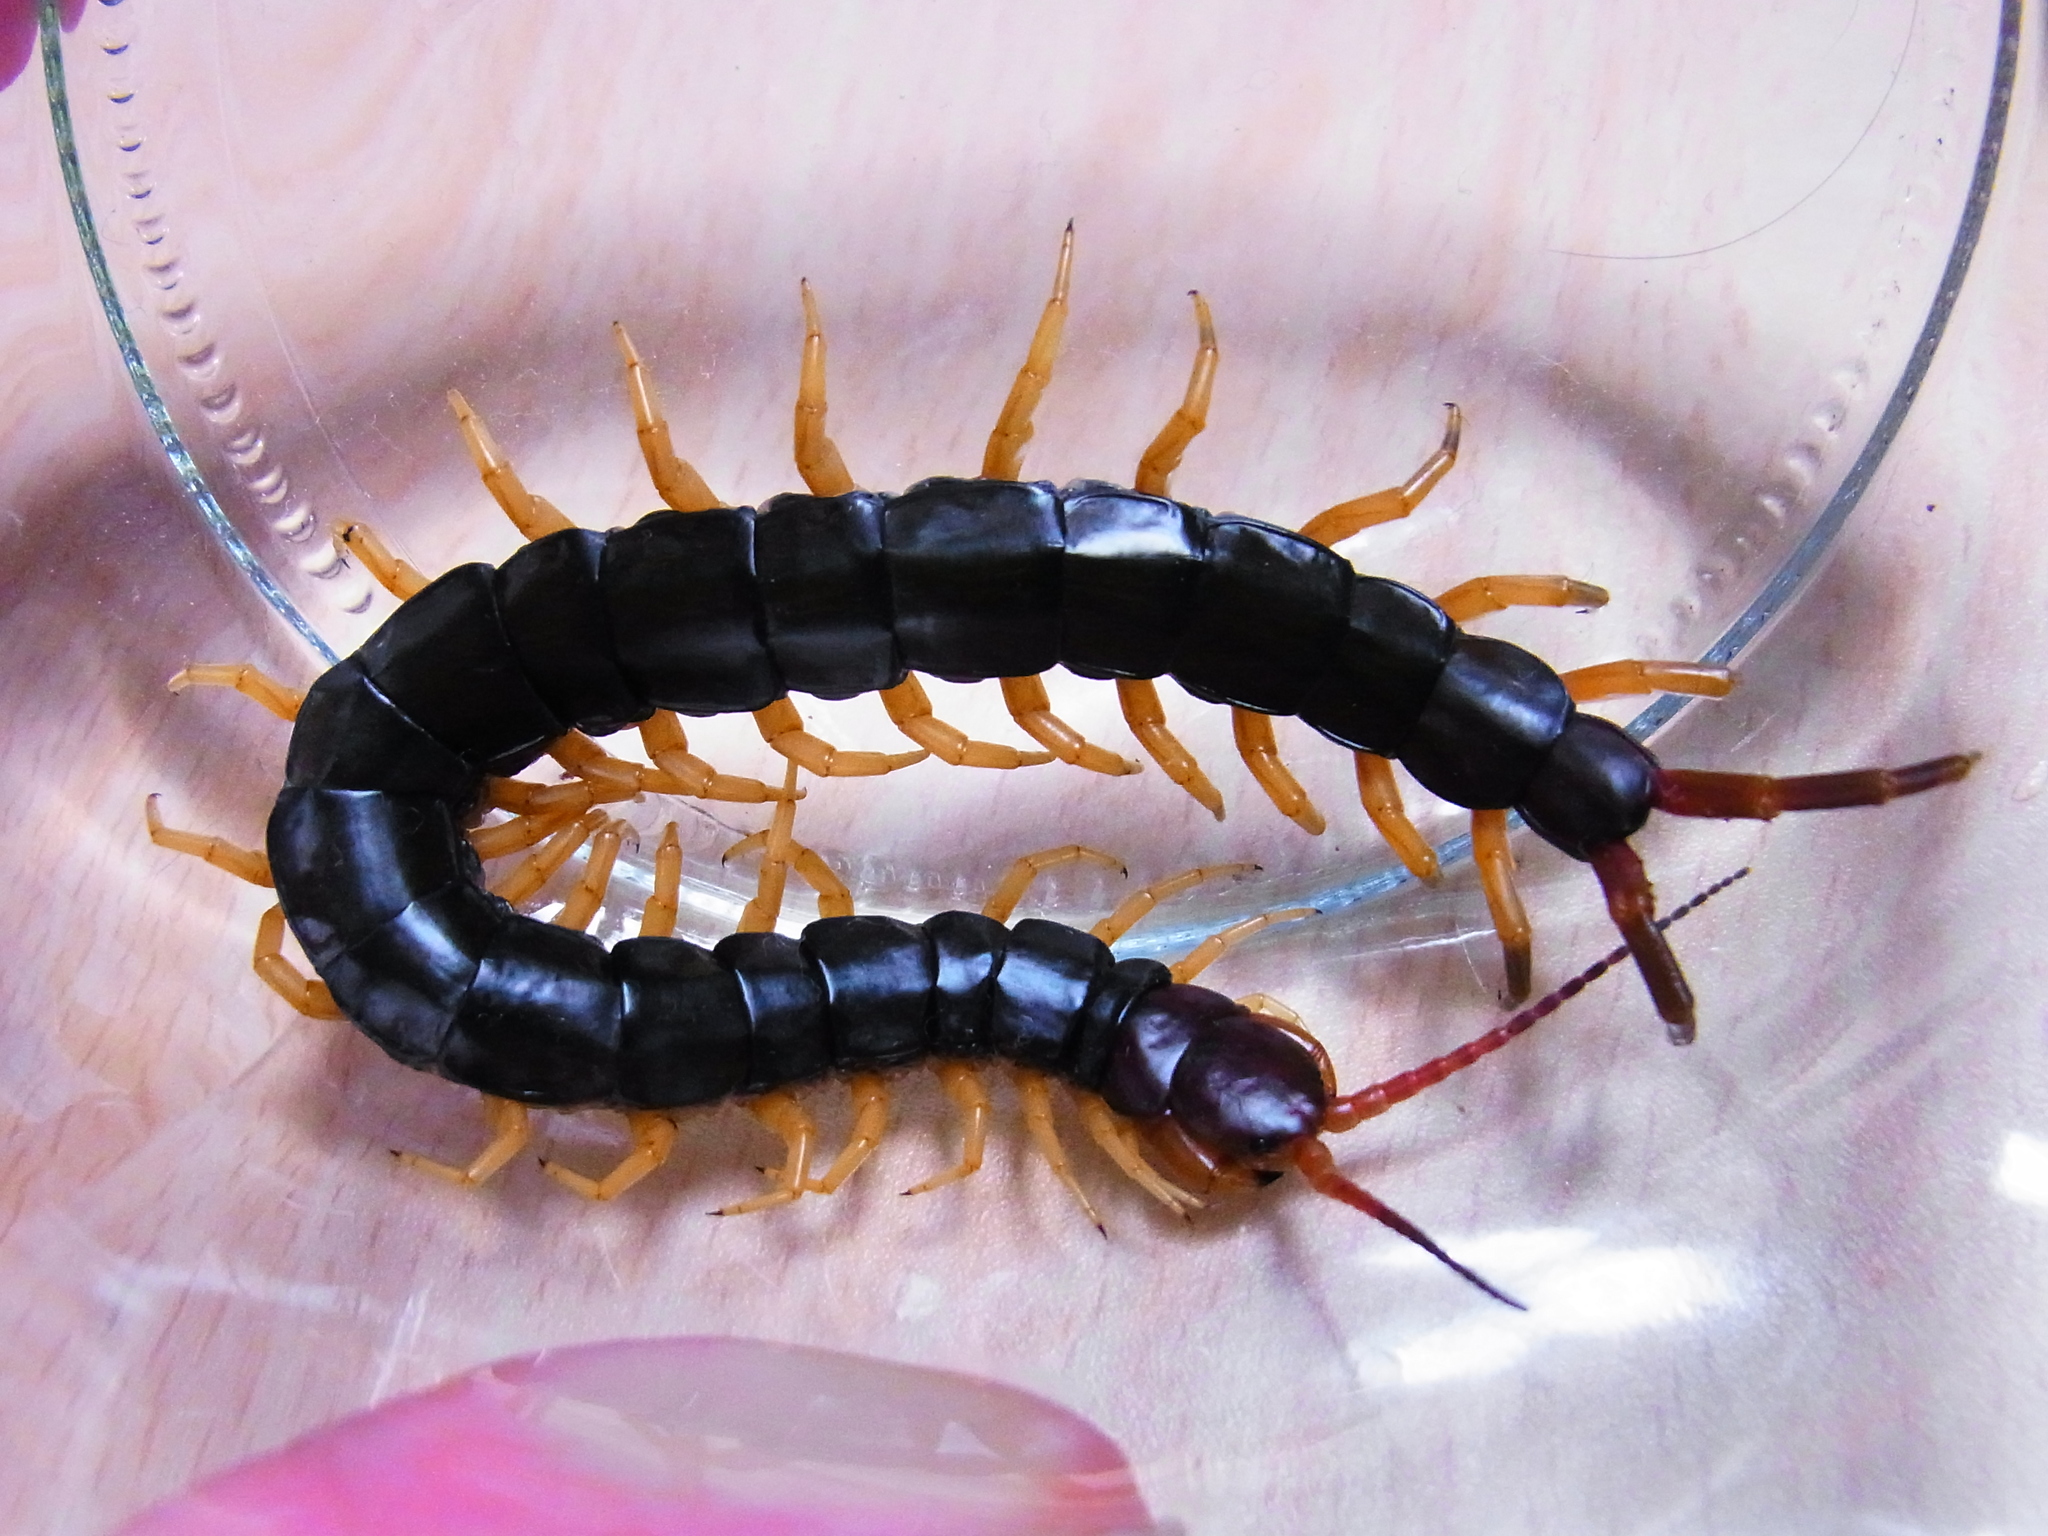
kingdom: Animalia
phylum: Arthropoda
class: Chilopoda
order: Scolopendromorpha
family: Scolopendridae
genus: Scolopendra
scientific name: Scolopendra mutilans
